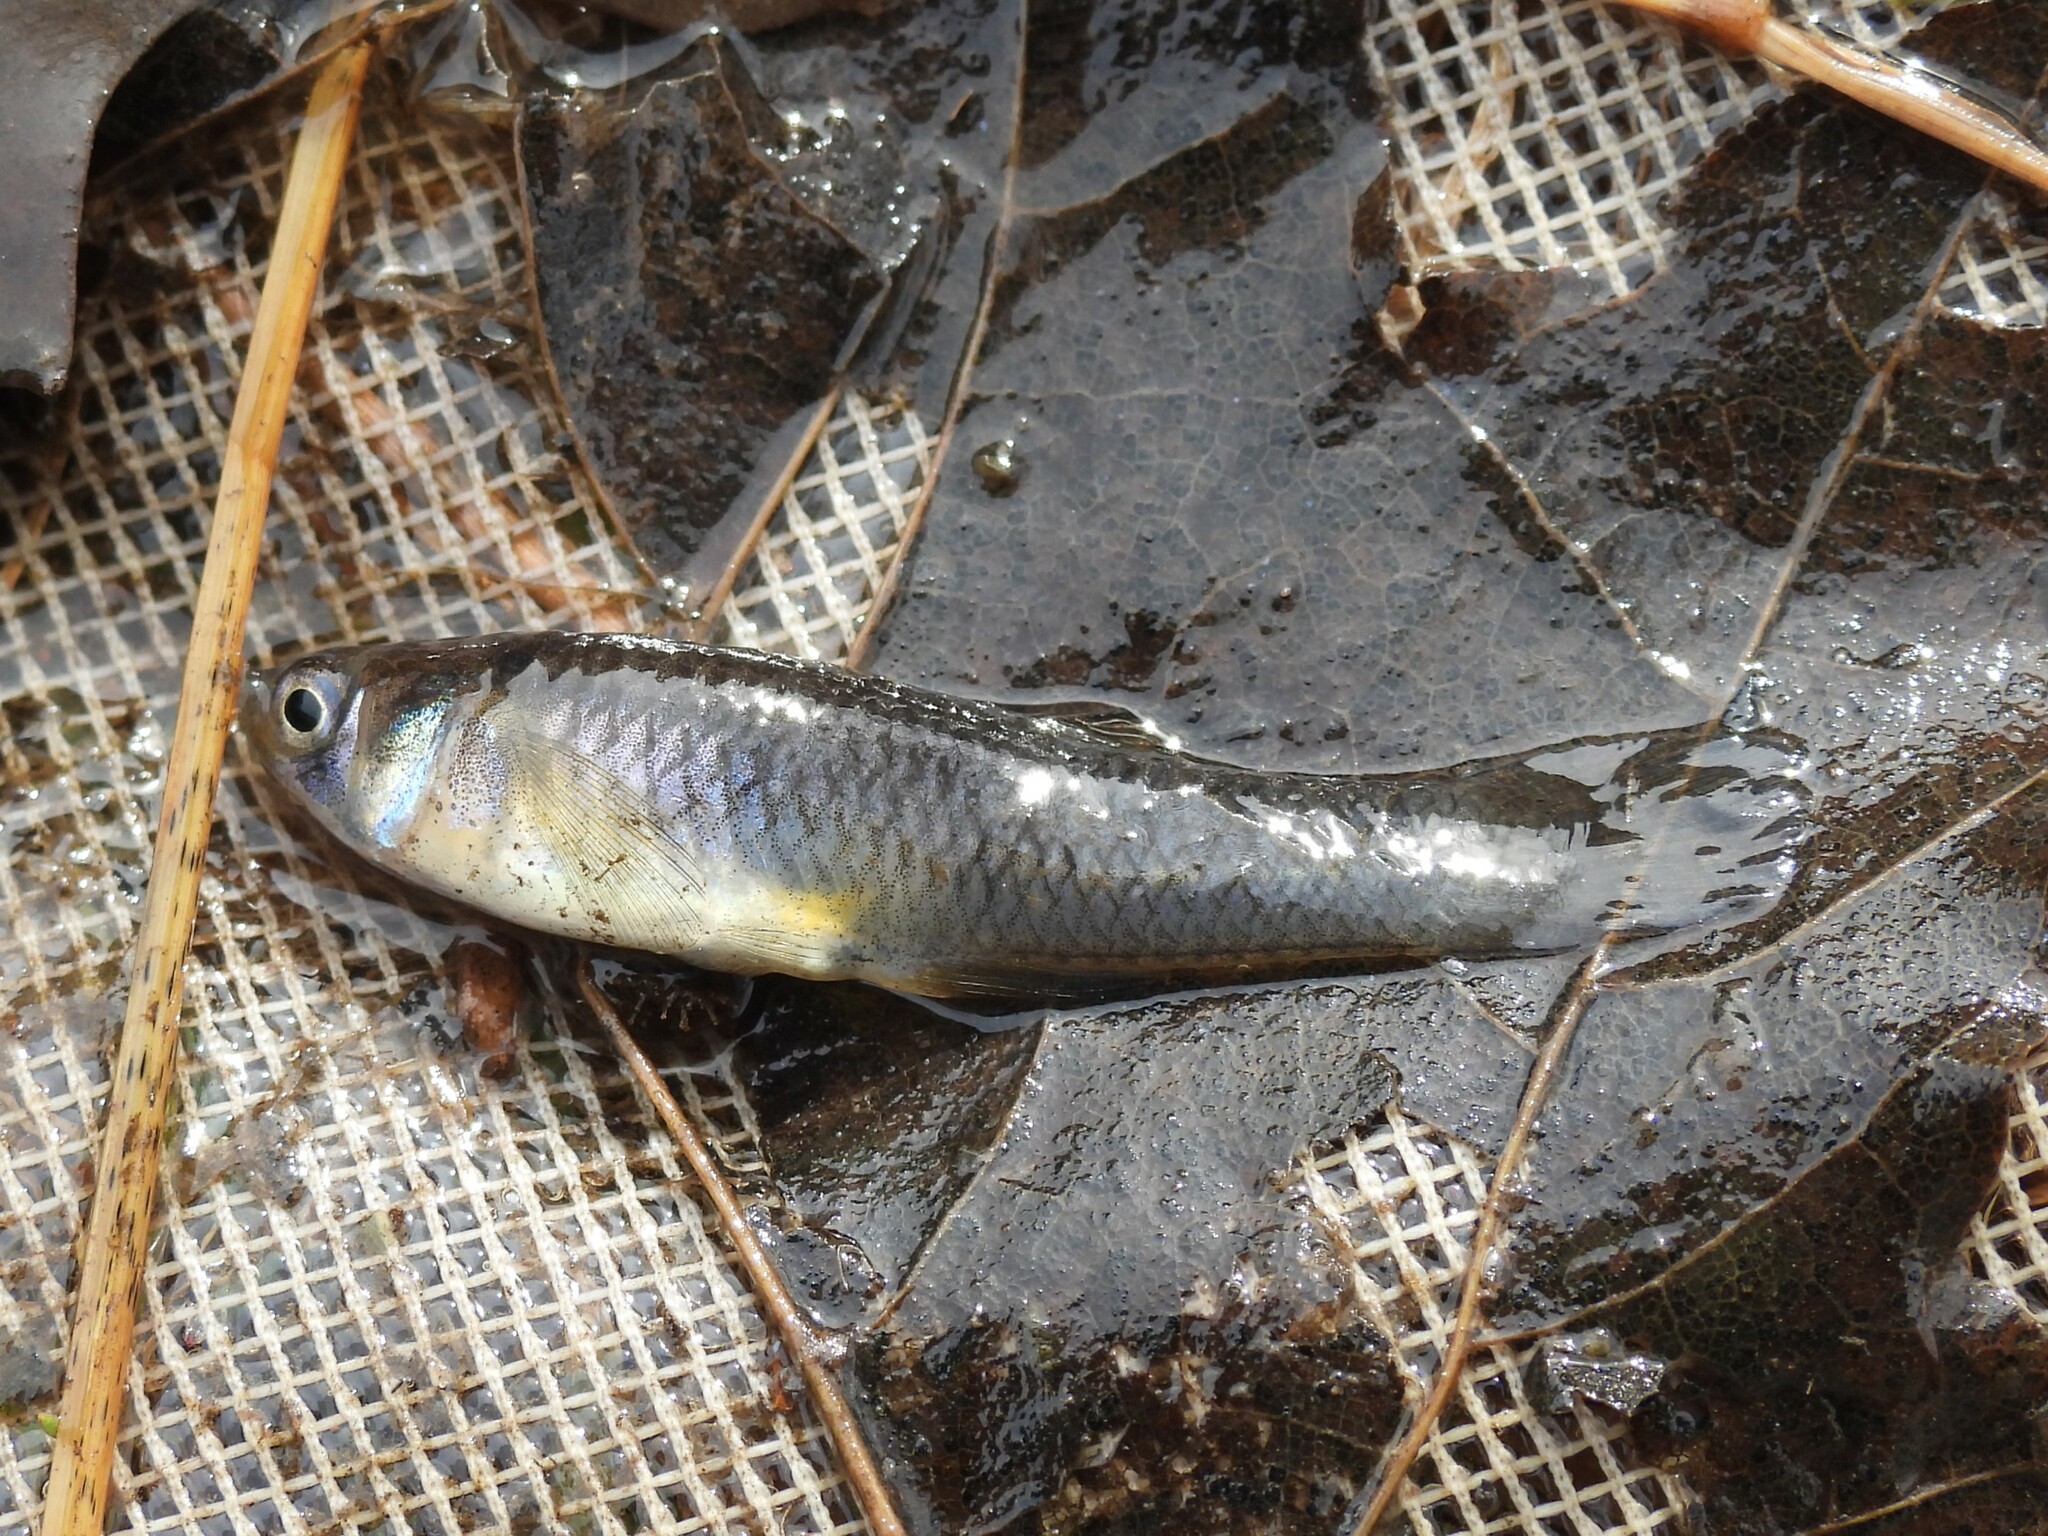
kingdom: Animalia
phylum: Chordata
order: Cyprinodontiformes
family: Poeciliidae
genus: Gambusia
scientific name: Gambusia
